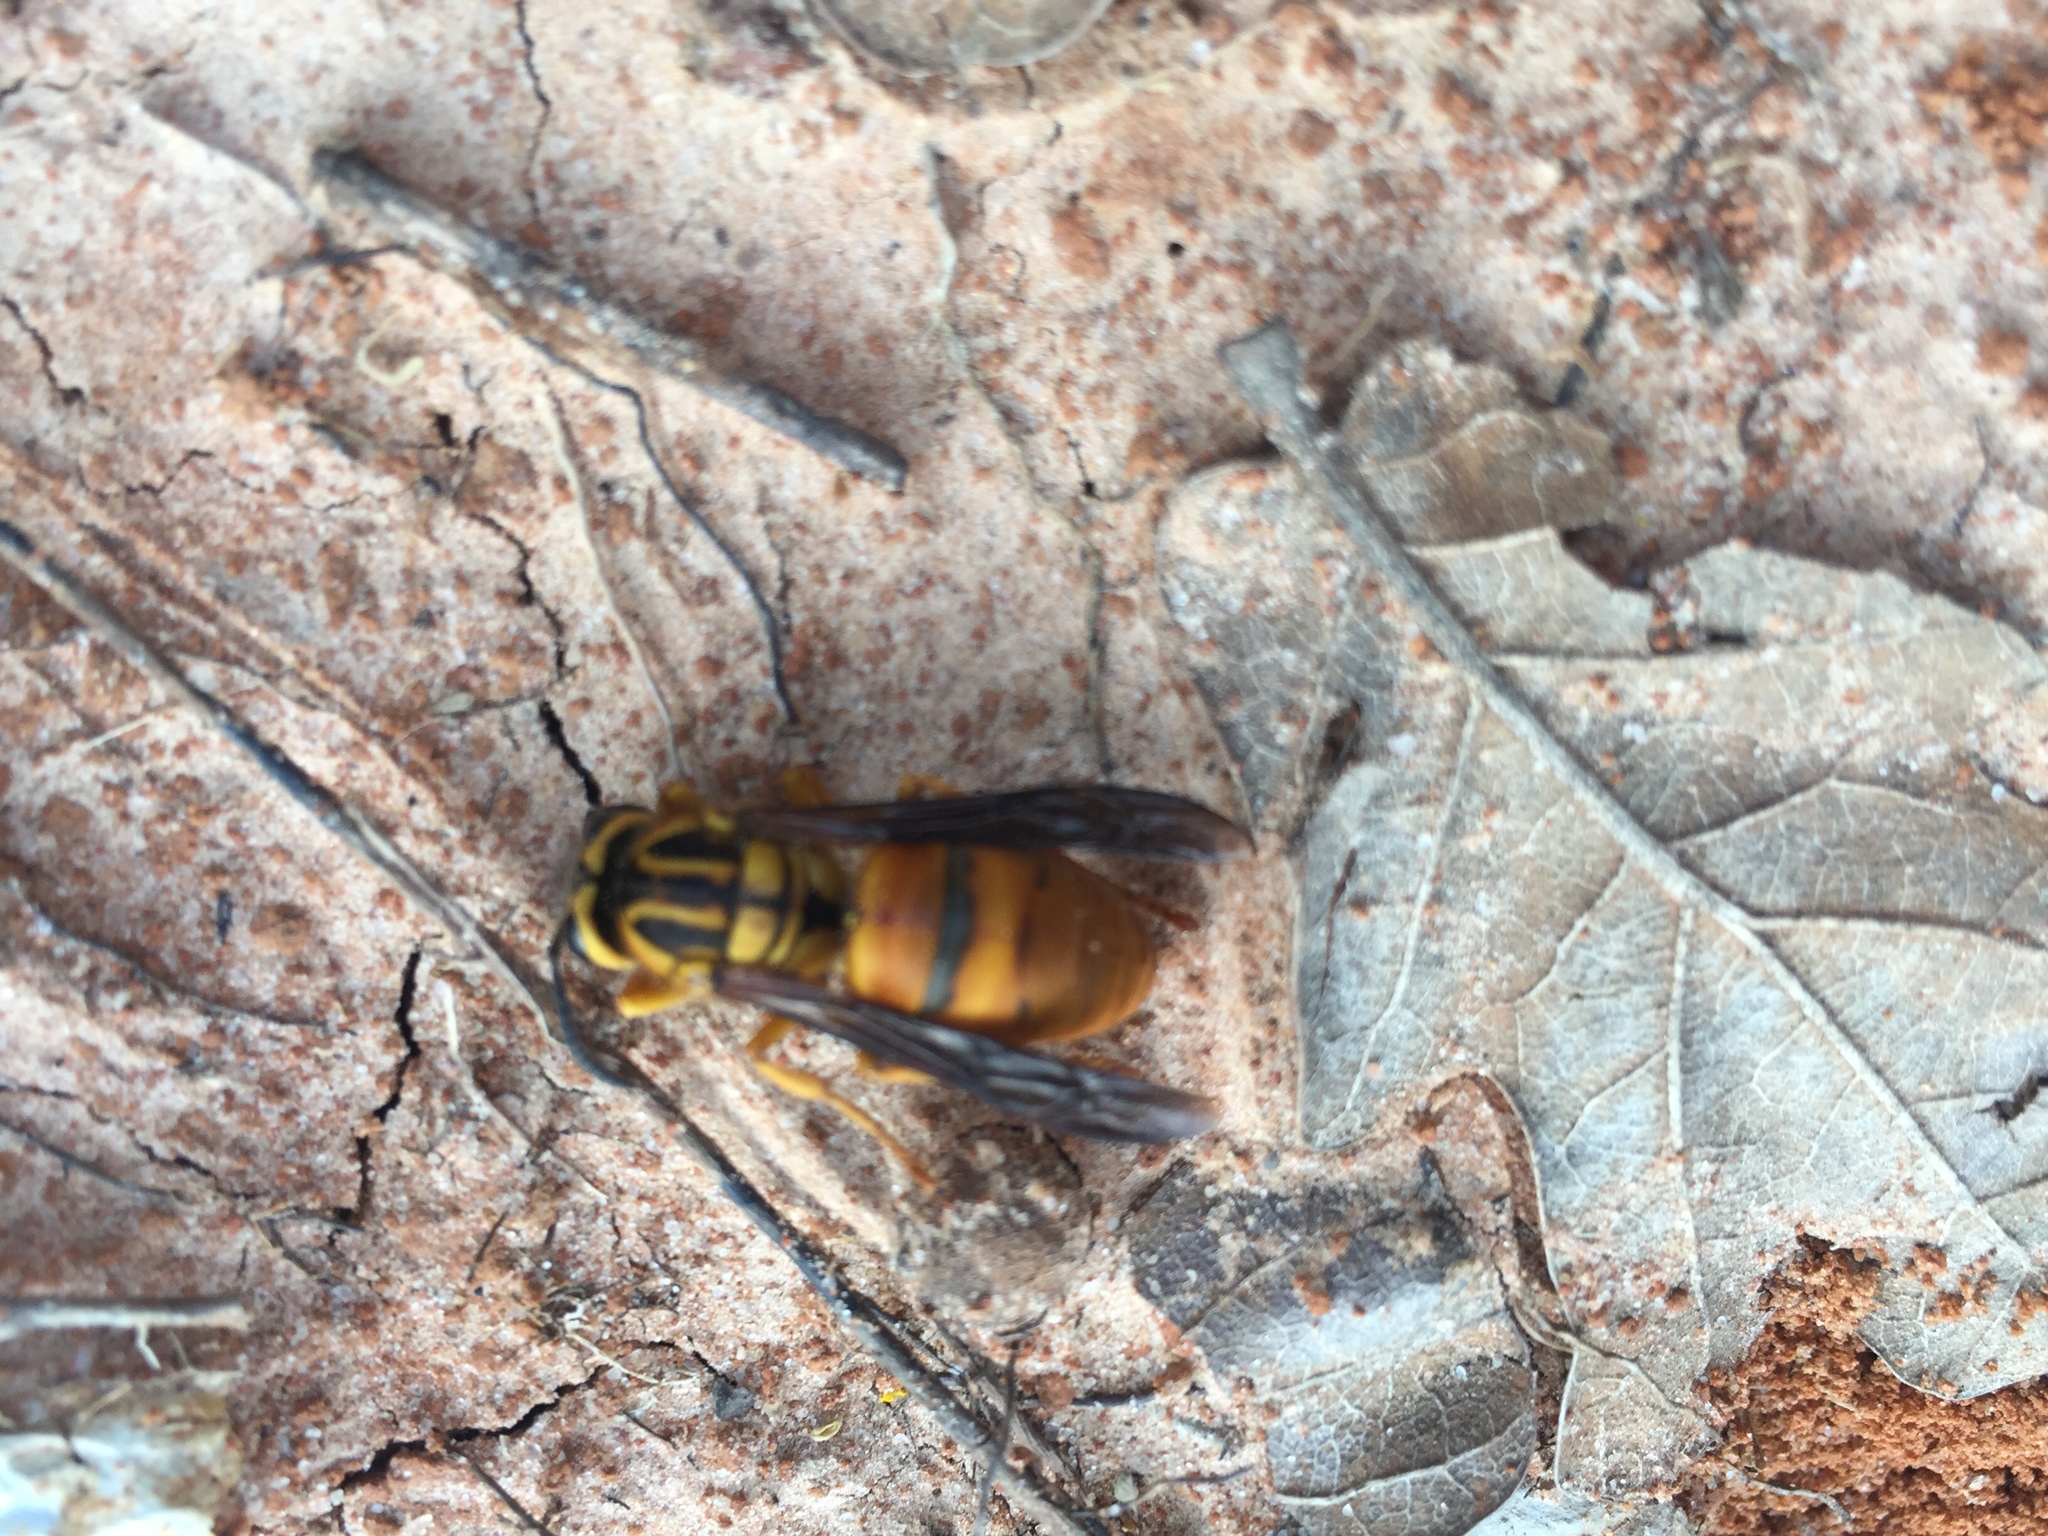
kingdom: Animalia
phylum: Arthropoda
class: Insecta
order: Hymenoptera
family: Vespidae
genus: Vespula
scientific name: Vespula squamosa
